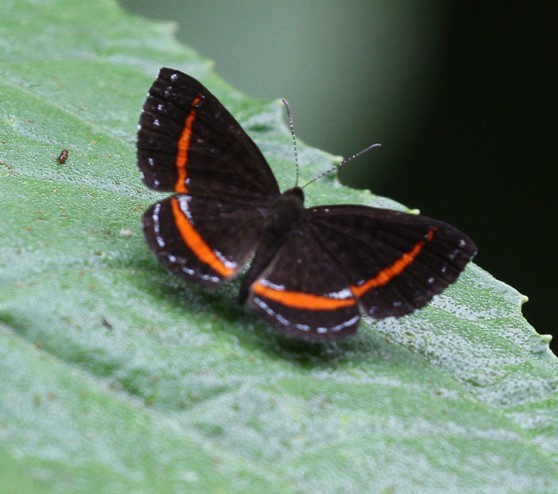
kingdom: Animalia
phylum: Arthropoda
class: Insecta
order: Lepidoptera
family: Riodinidae
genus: Crocozona
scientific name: Crocozona coecias
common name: Orange-banded gem
